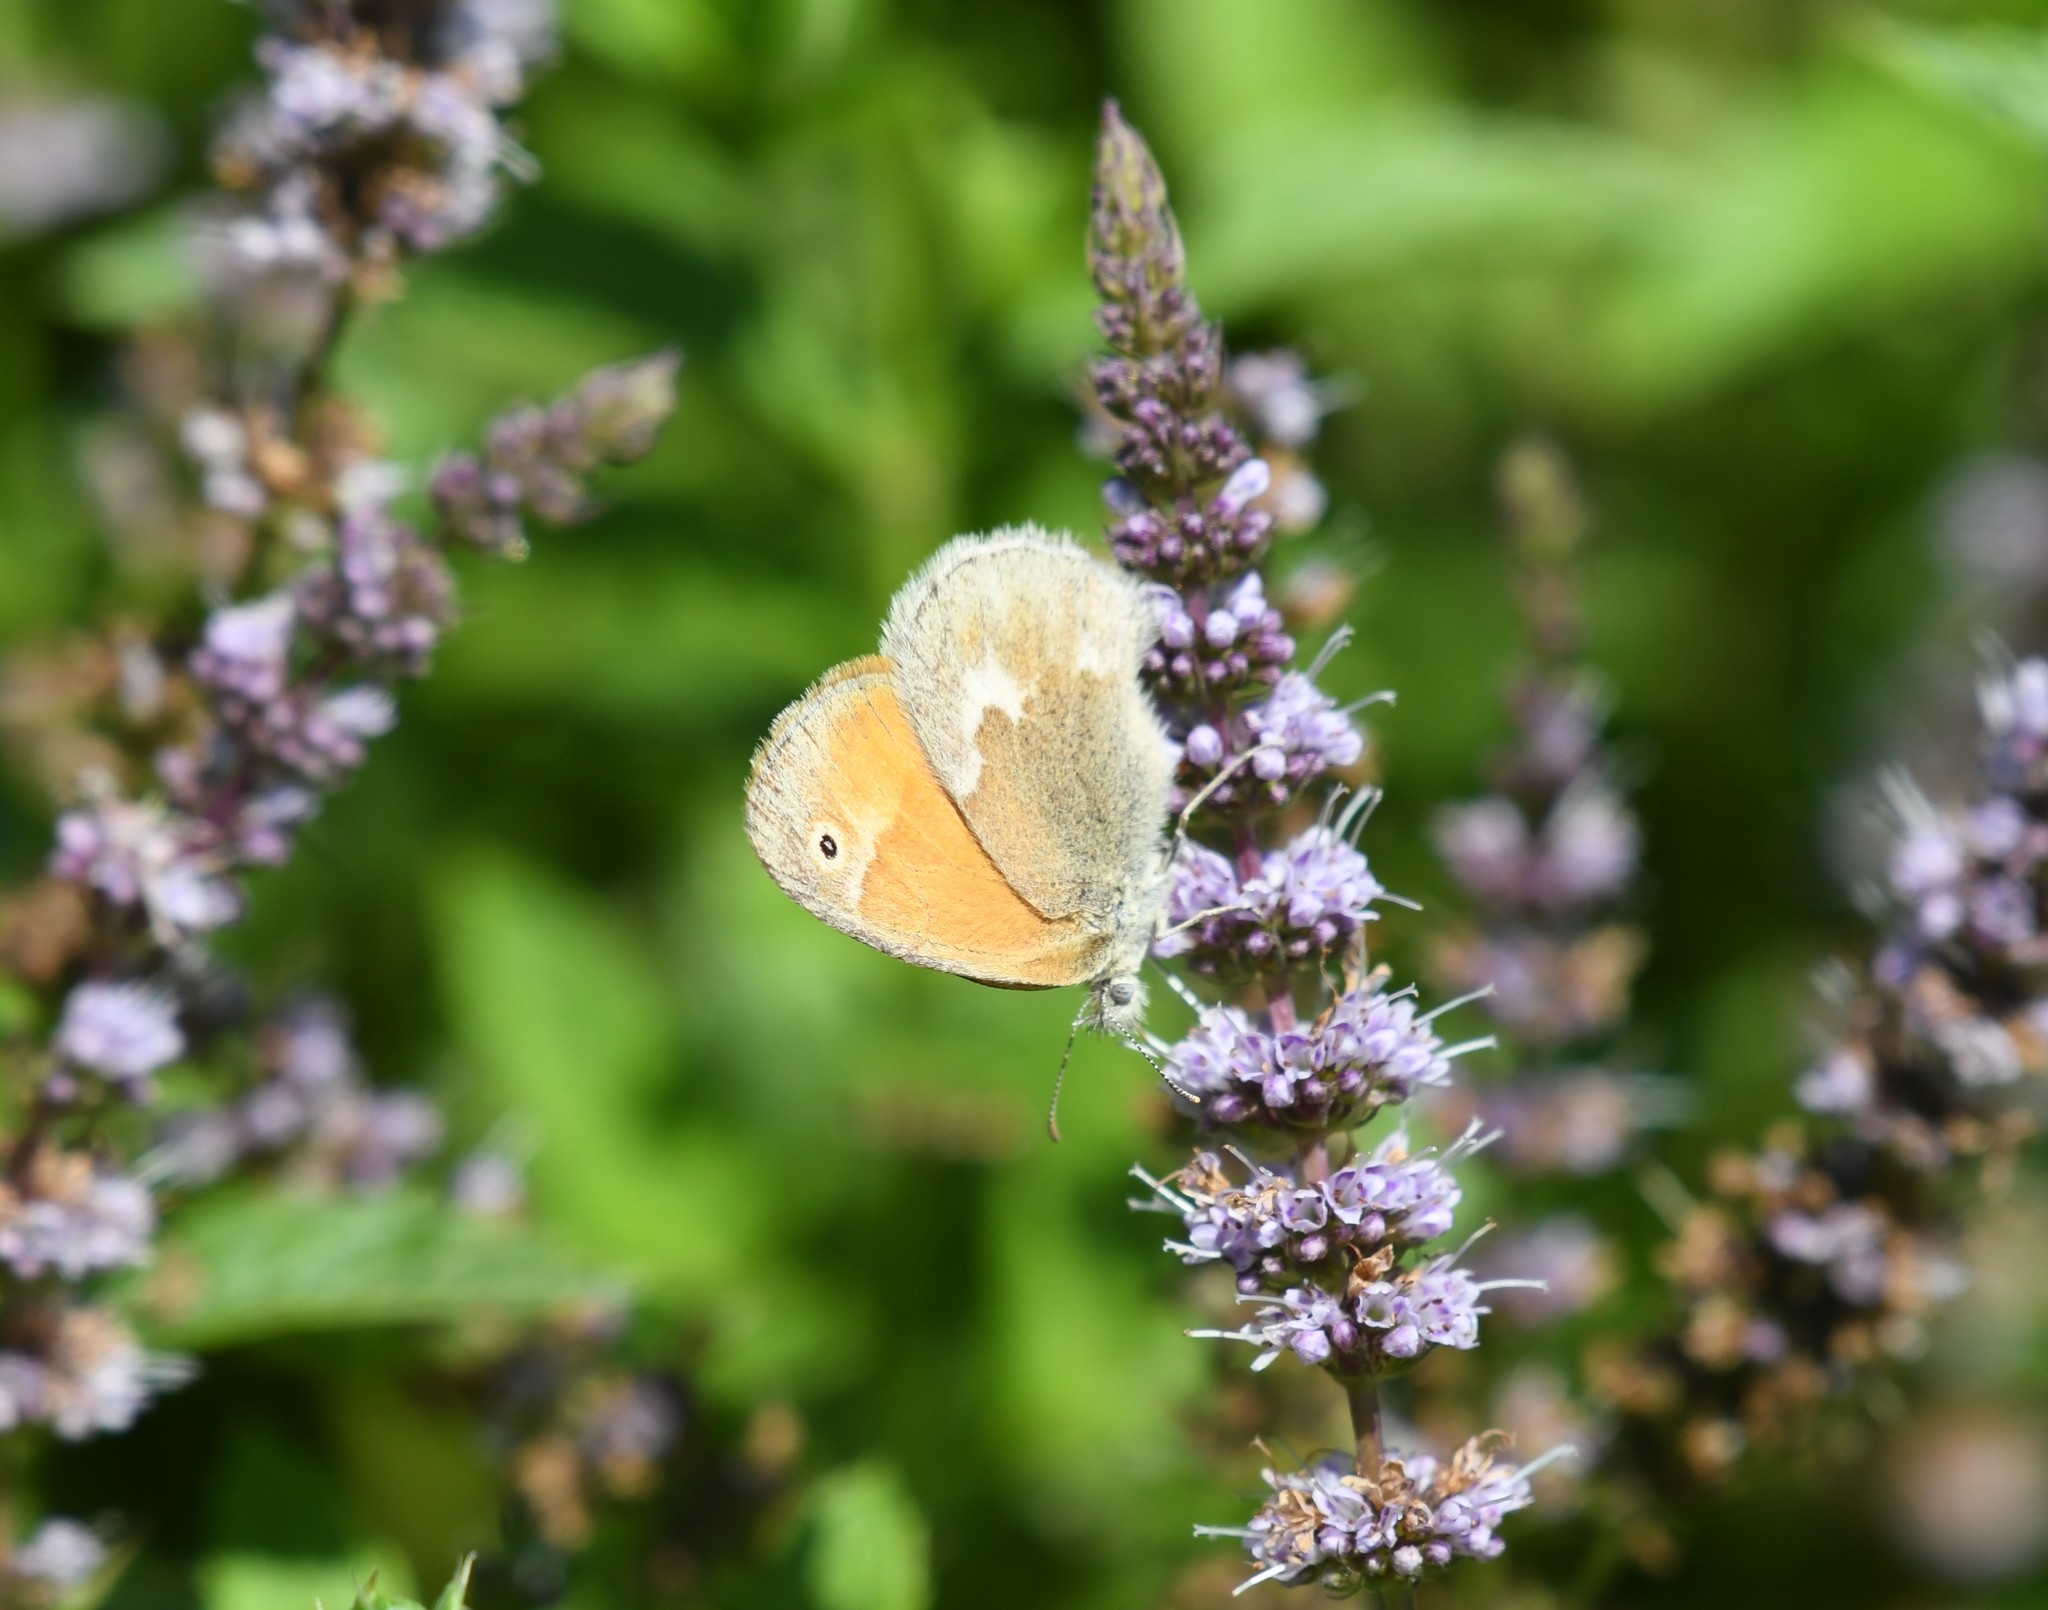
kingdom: Animalia
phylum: Arthropoda
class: Insecta
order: Lepidoptera
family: Nymphalidae
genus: Coenonympha
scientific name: Coenonympha california
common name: Common ringlet
